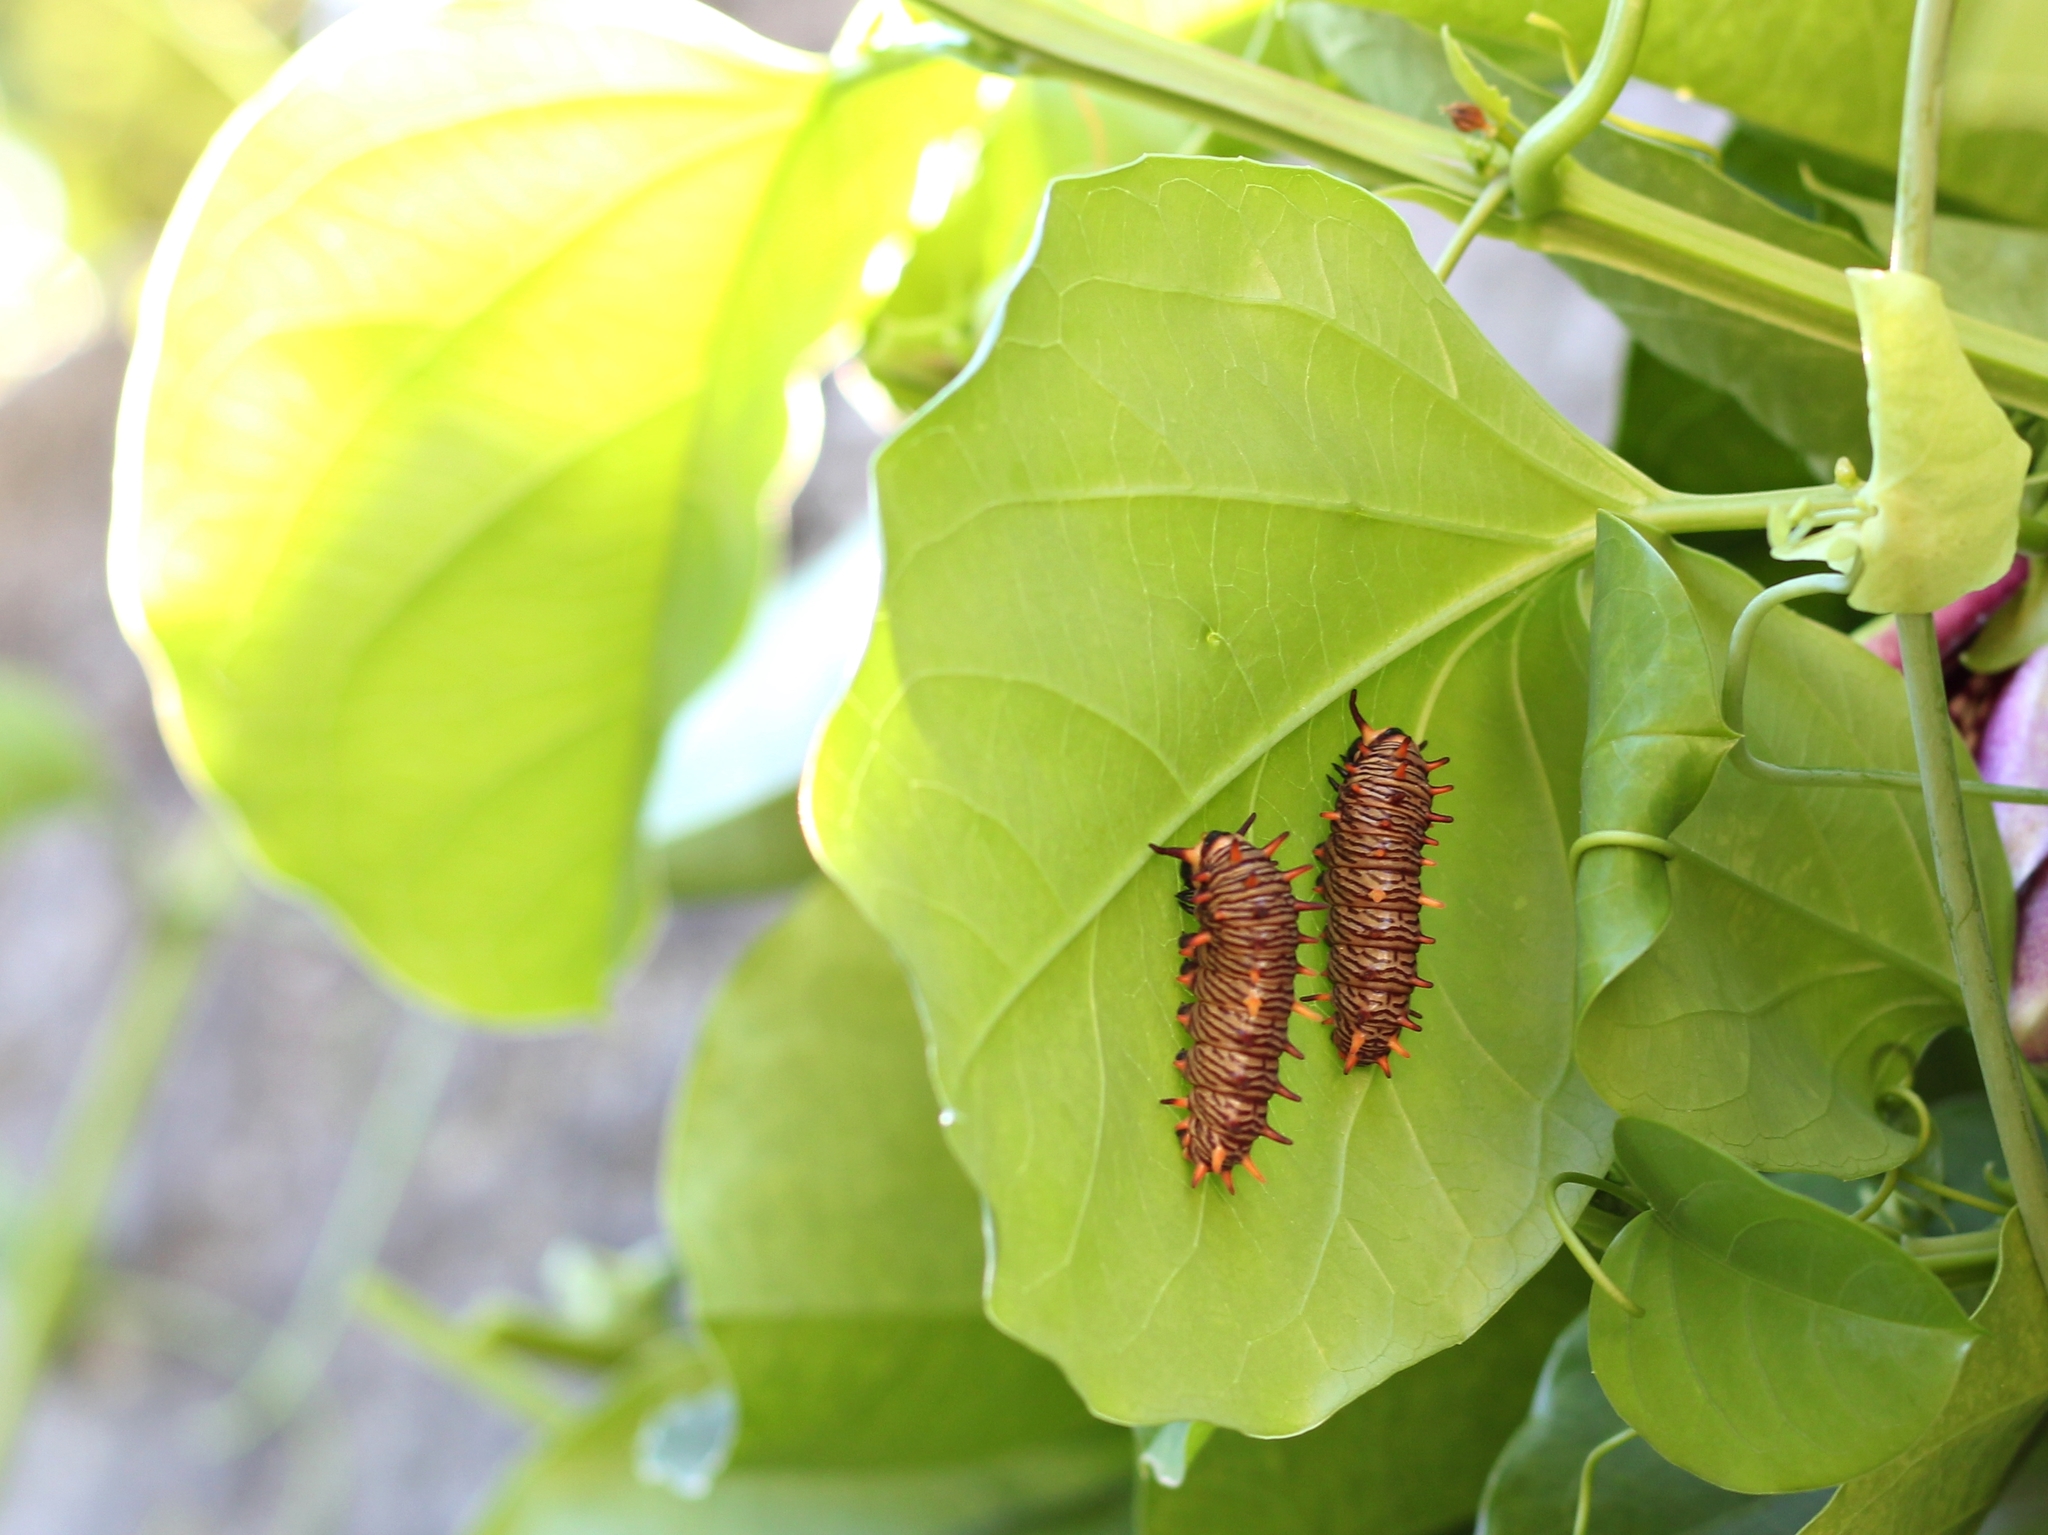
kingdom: Animalia
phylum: Arthropoda
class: Insecta
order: Lepidoptera
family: Papilionidae
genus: Battus
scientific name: Battus polydamas
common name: Polydamas swallowtail
